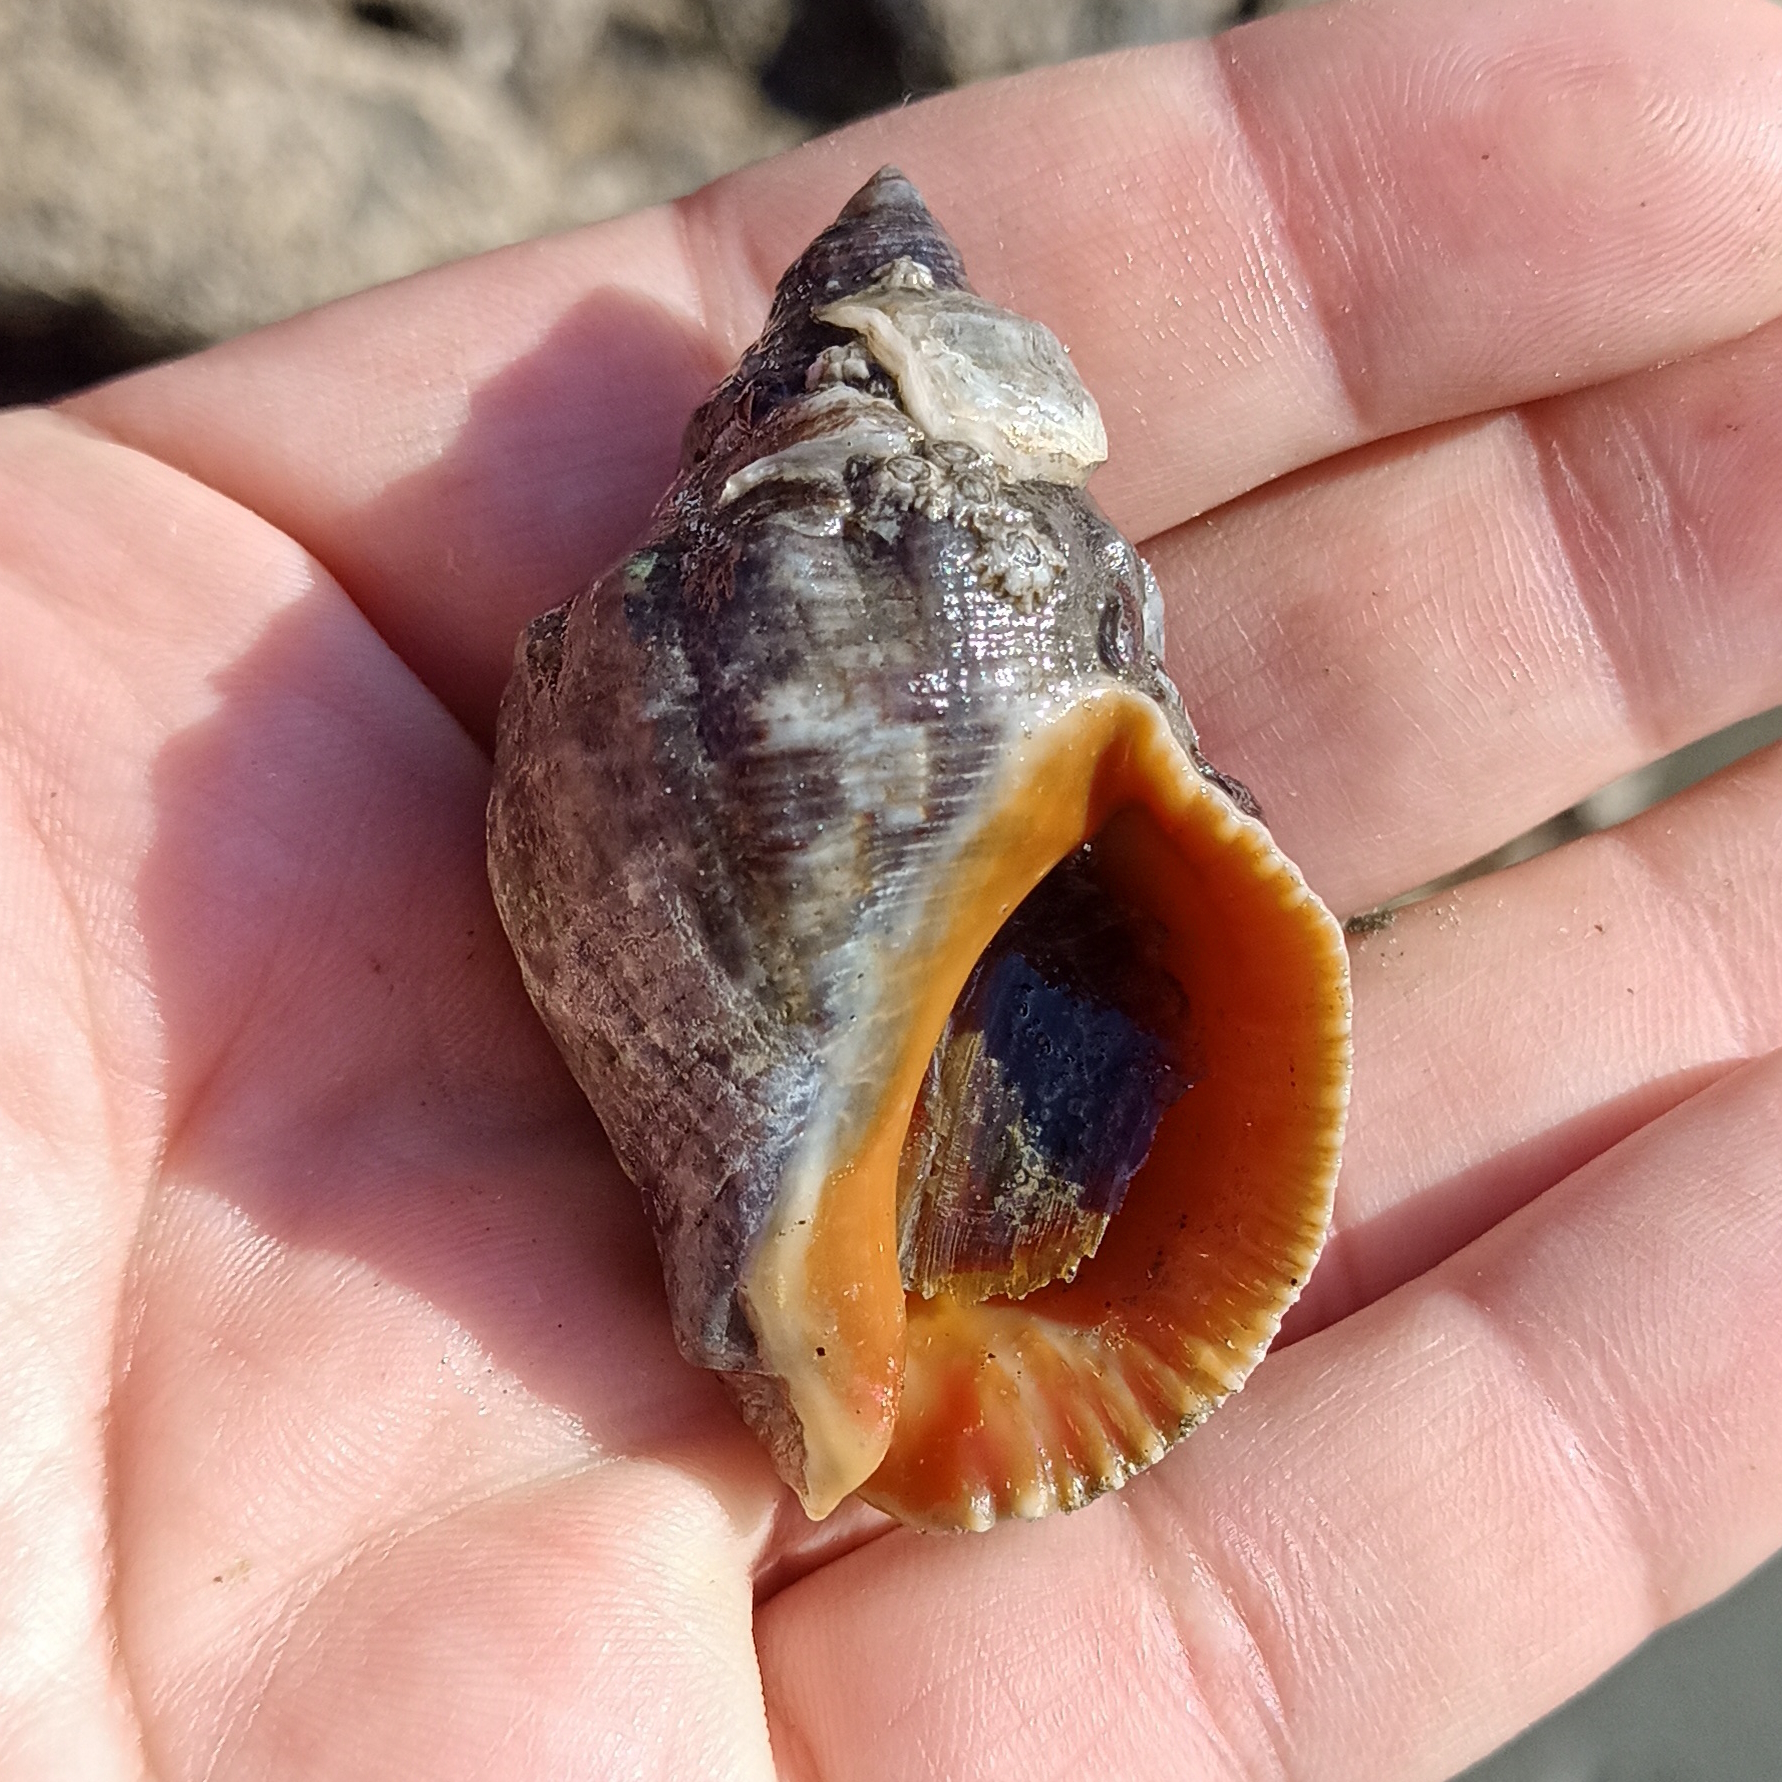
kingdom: Animalia
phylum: Mollusca
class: Gastropoda
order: Neogastropoda
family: Muricidae
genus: Stramonita
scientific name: Stramonita brasiliensis
